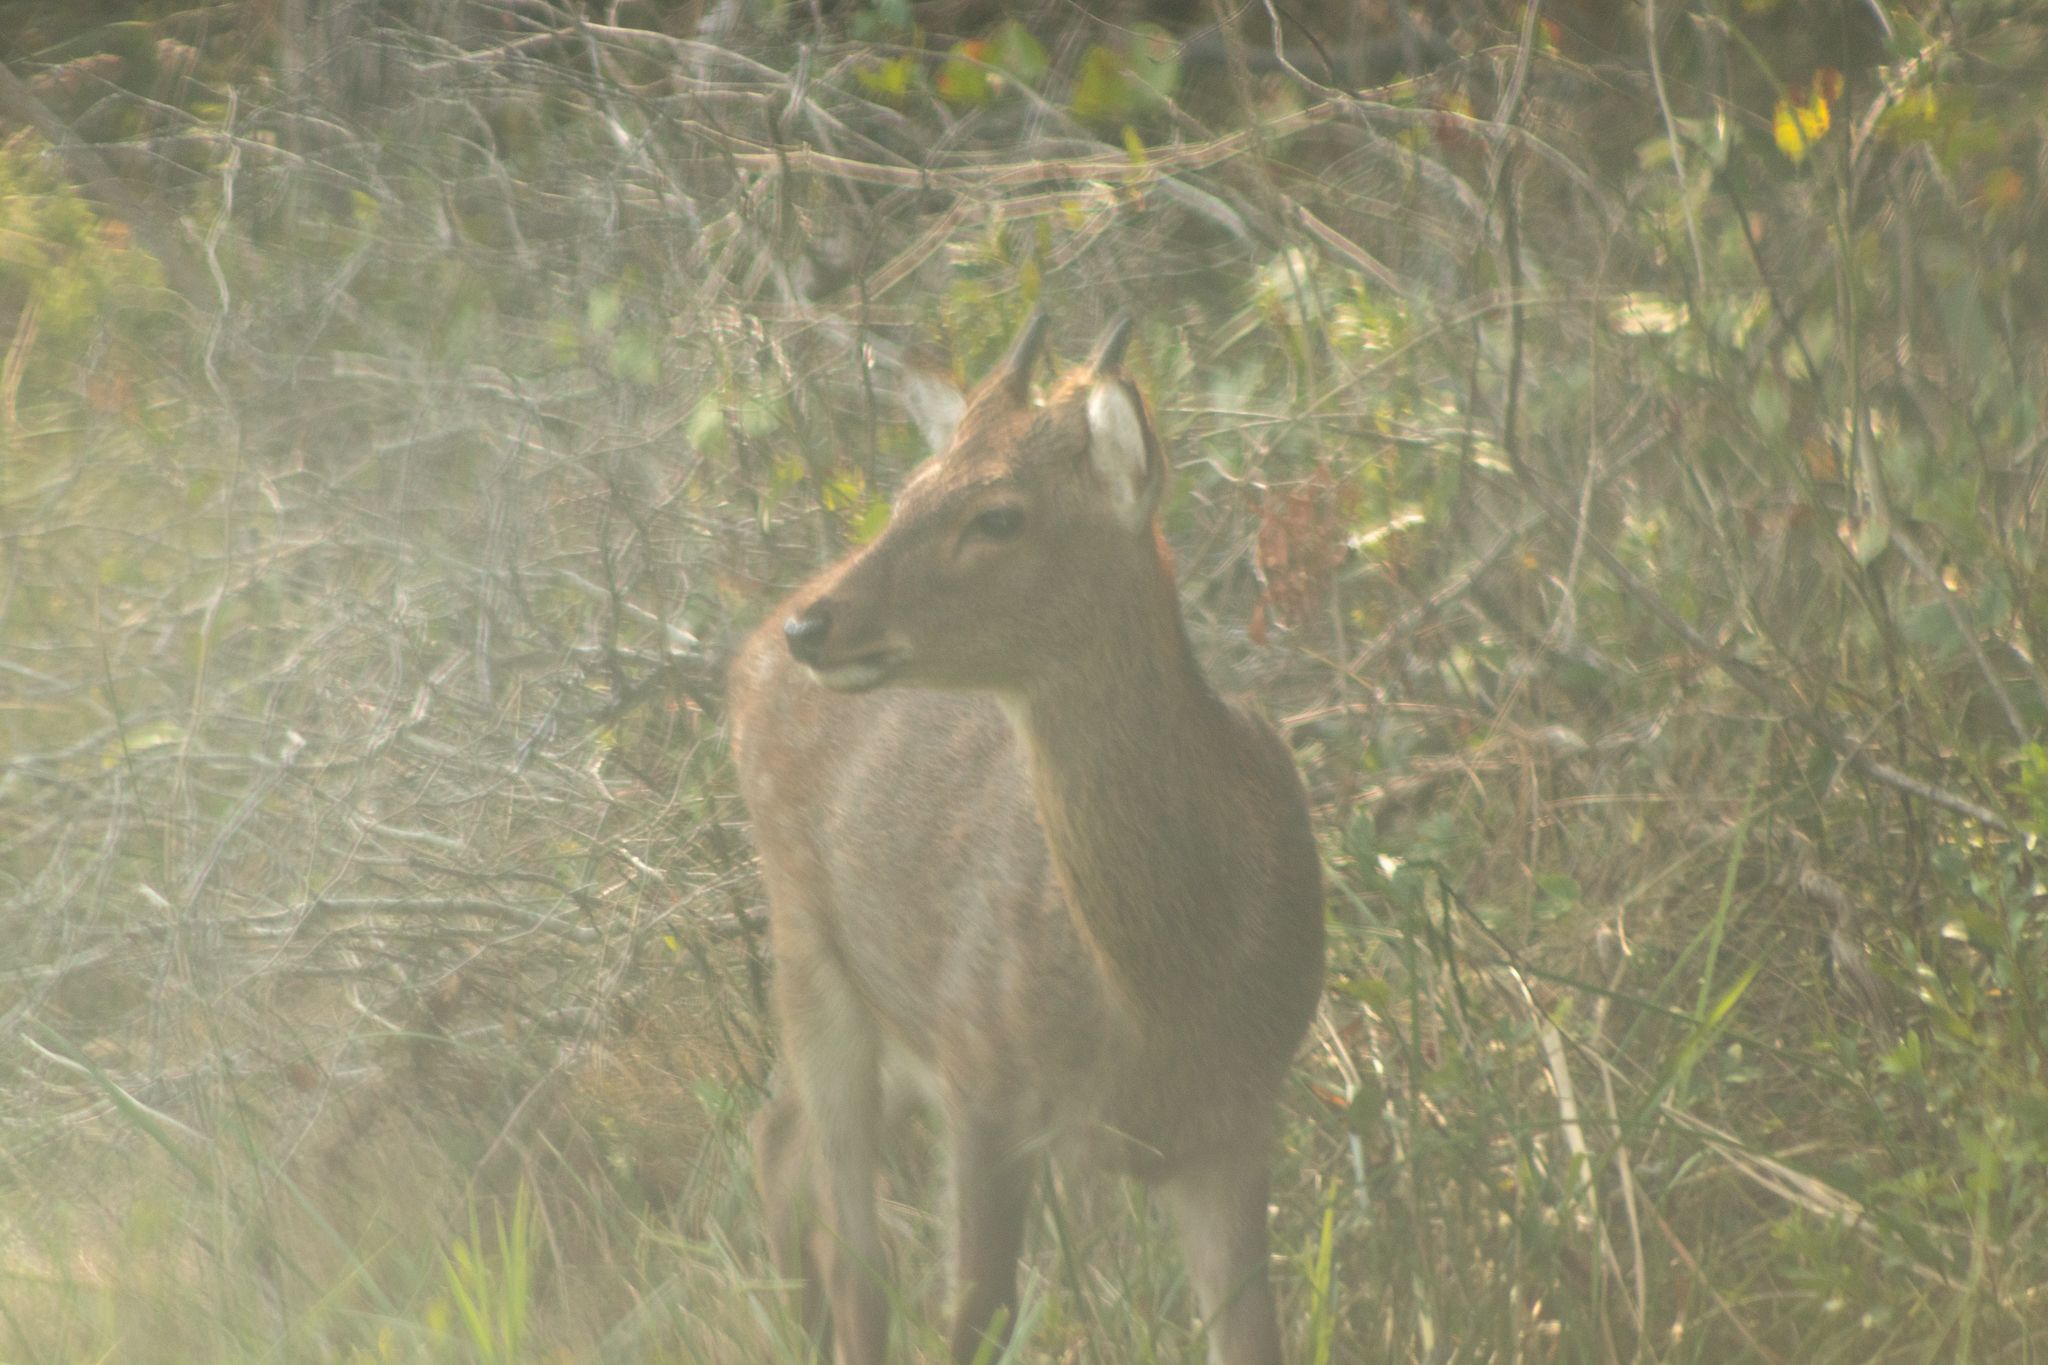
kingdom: Animalia
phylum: Chordata
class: Mammalia
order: Artiodactyla
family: Cervidae
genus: Cervus
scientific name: Cervus nippon
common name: Sika deer
